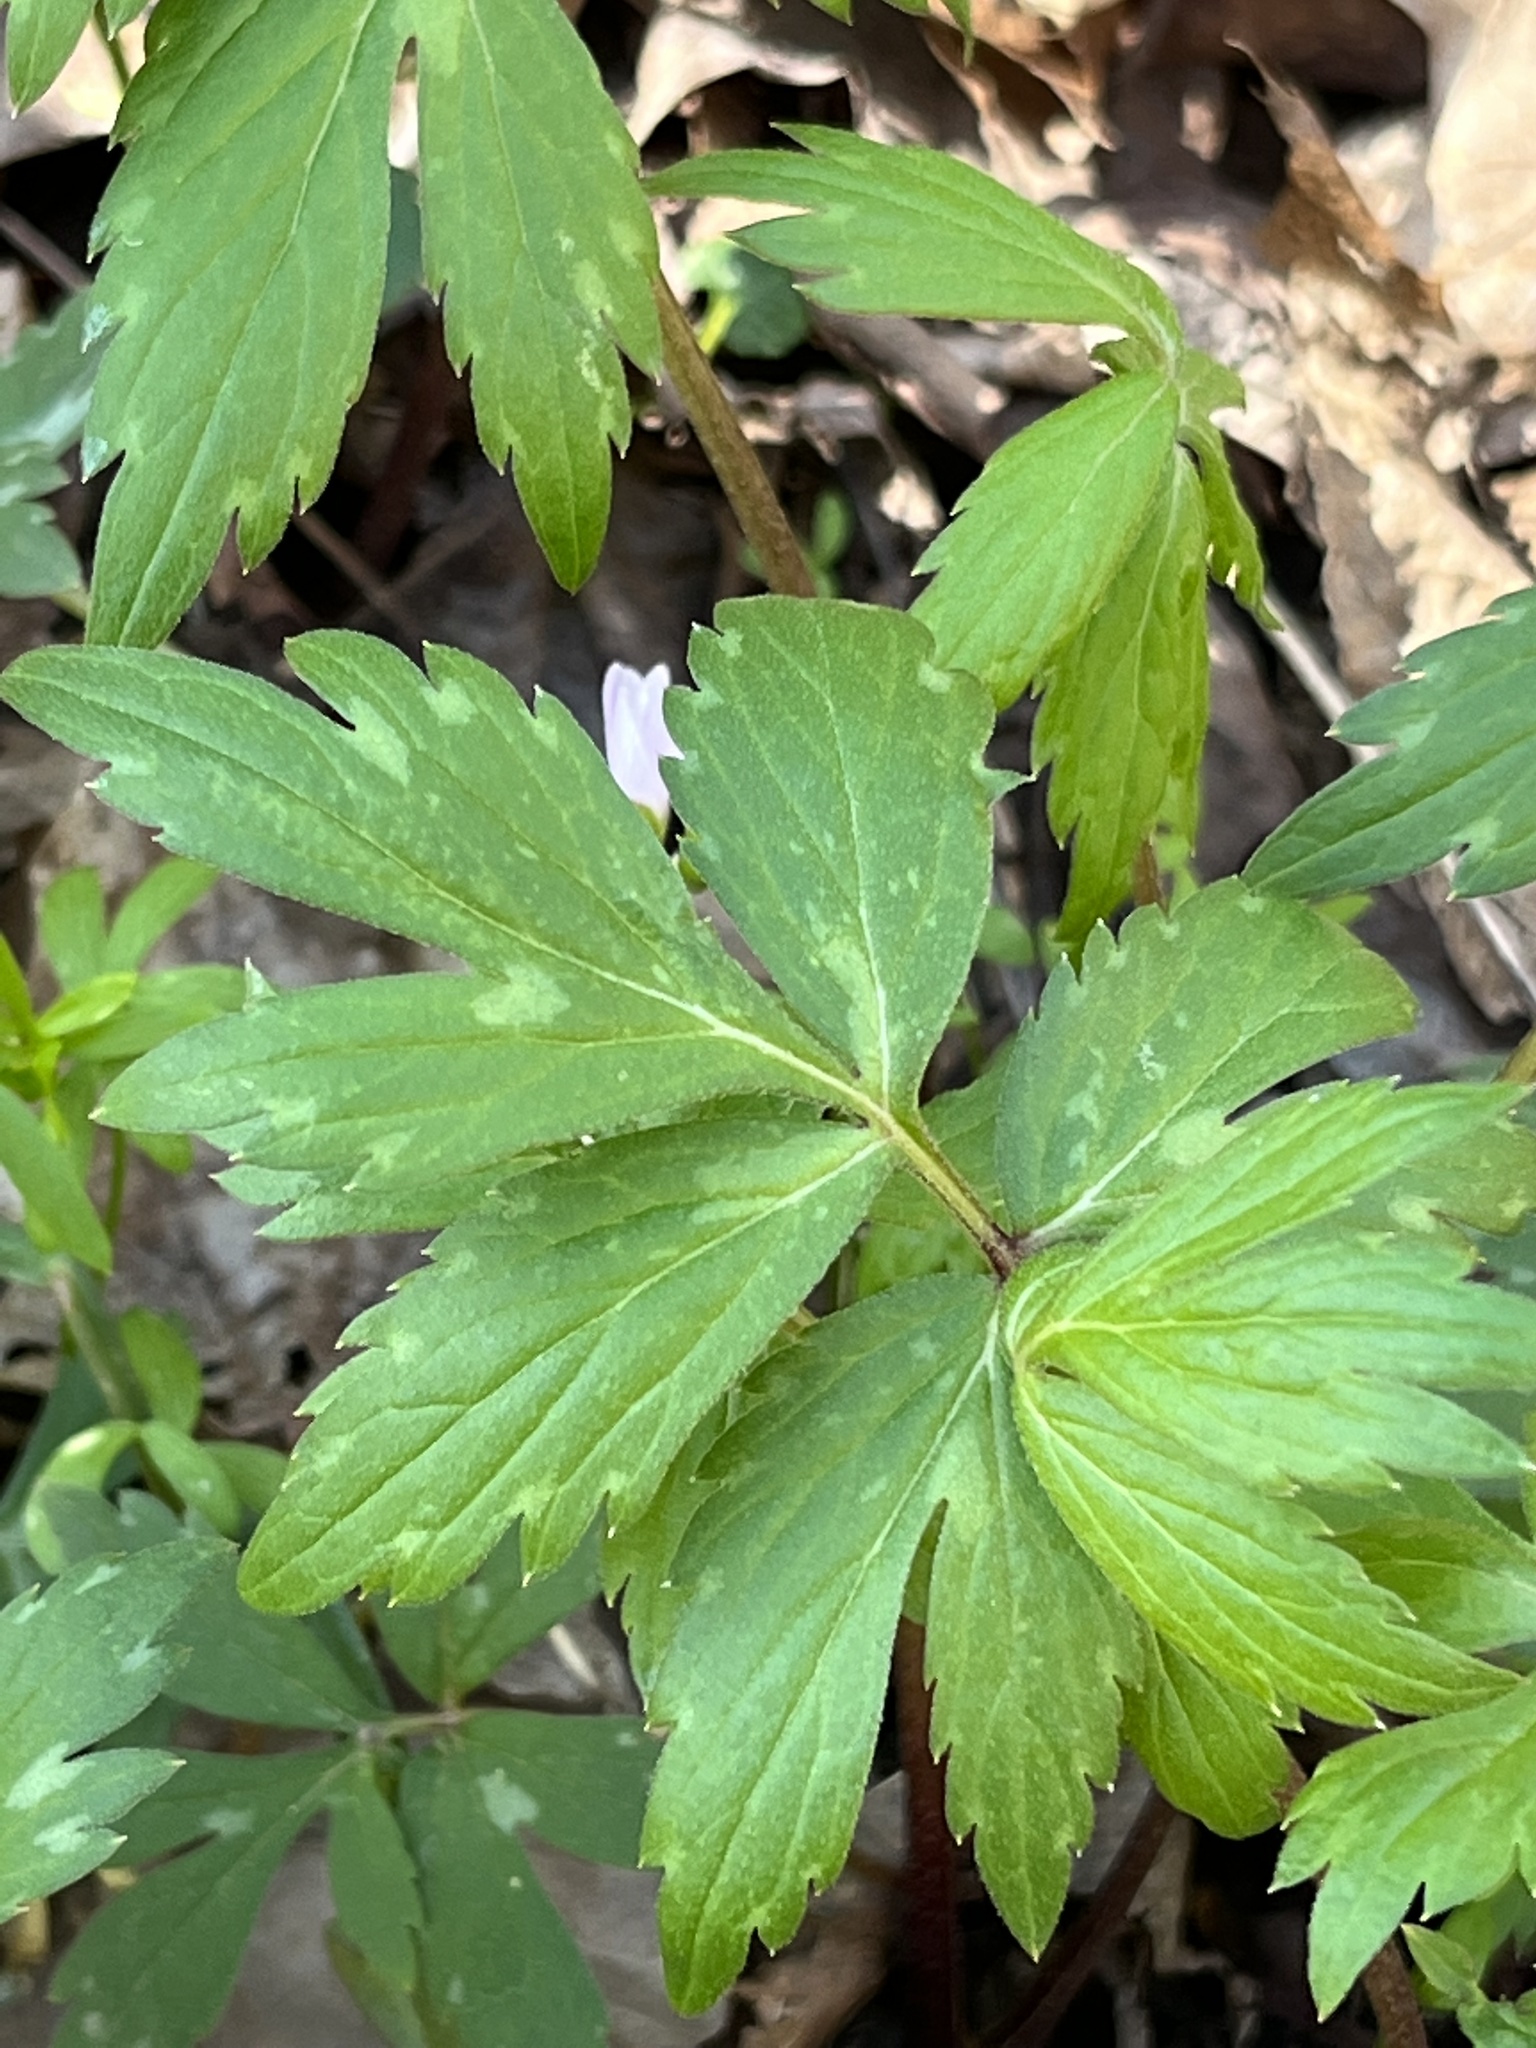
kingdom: Plantae
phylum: Tracheophyta
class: Magnoliopsida
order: Boraginales
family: Hydrophyllaceae
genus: Hydrophyllum
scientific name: Hydrophyllum virginianum
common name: Virginia waterleaf
